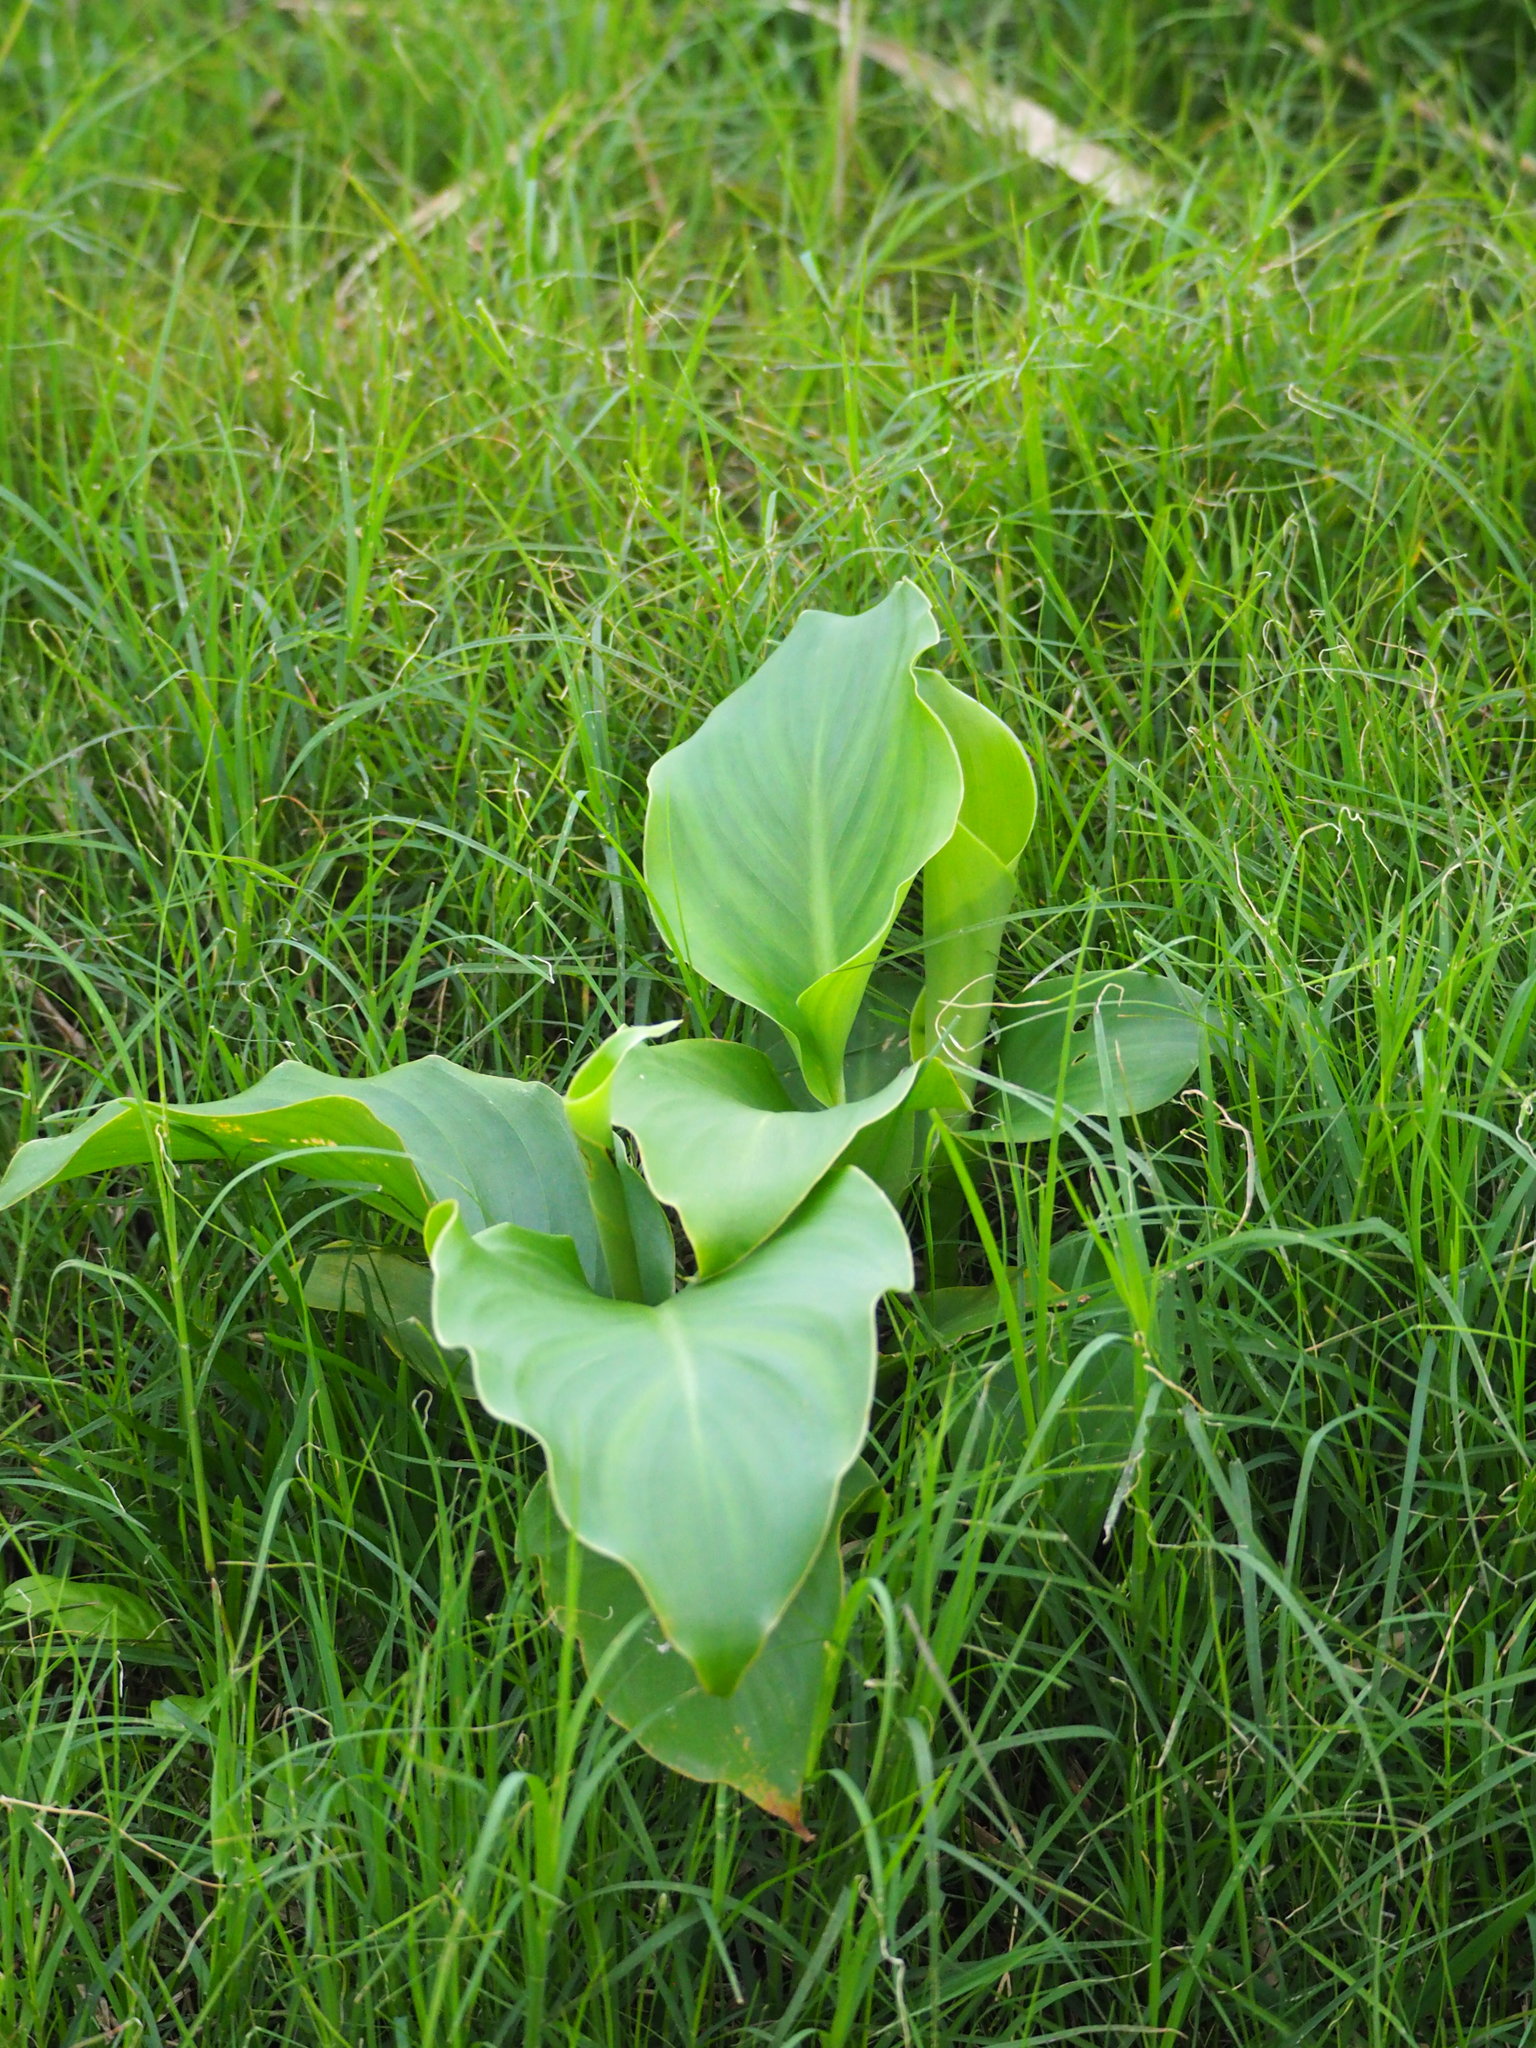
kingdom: Plantae
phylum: Tracheophyta
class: Liliopsida
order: Zingiberales
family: Cannaceae
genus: Canna
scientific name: Canna indica
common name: Indian shot
